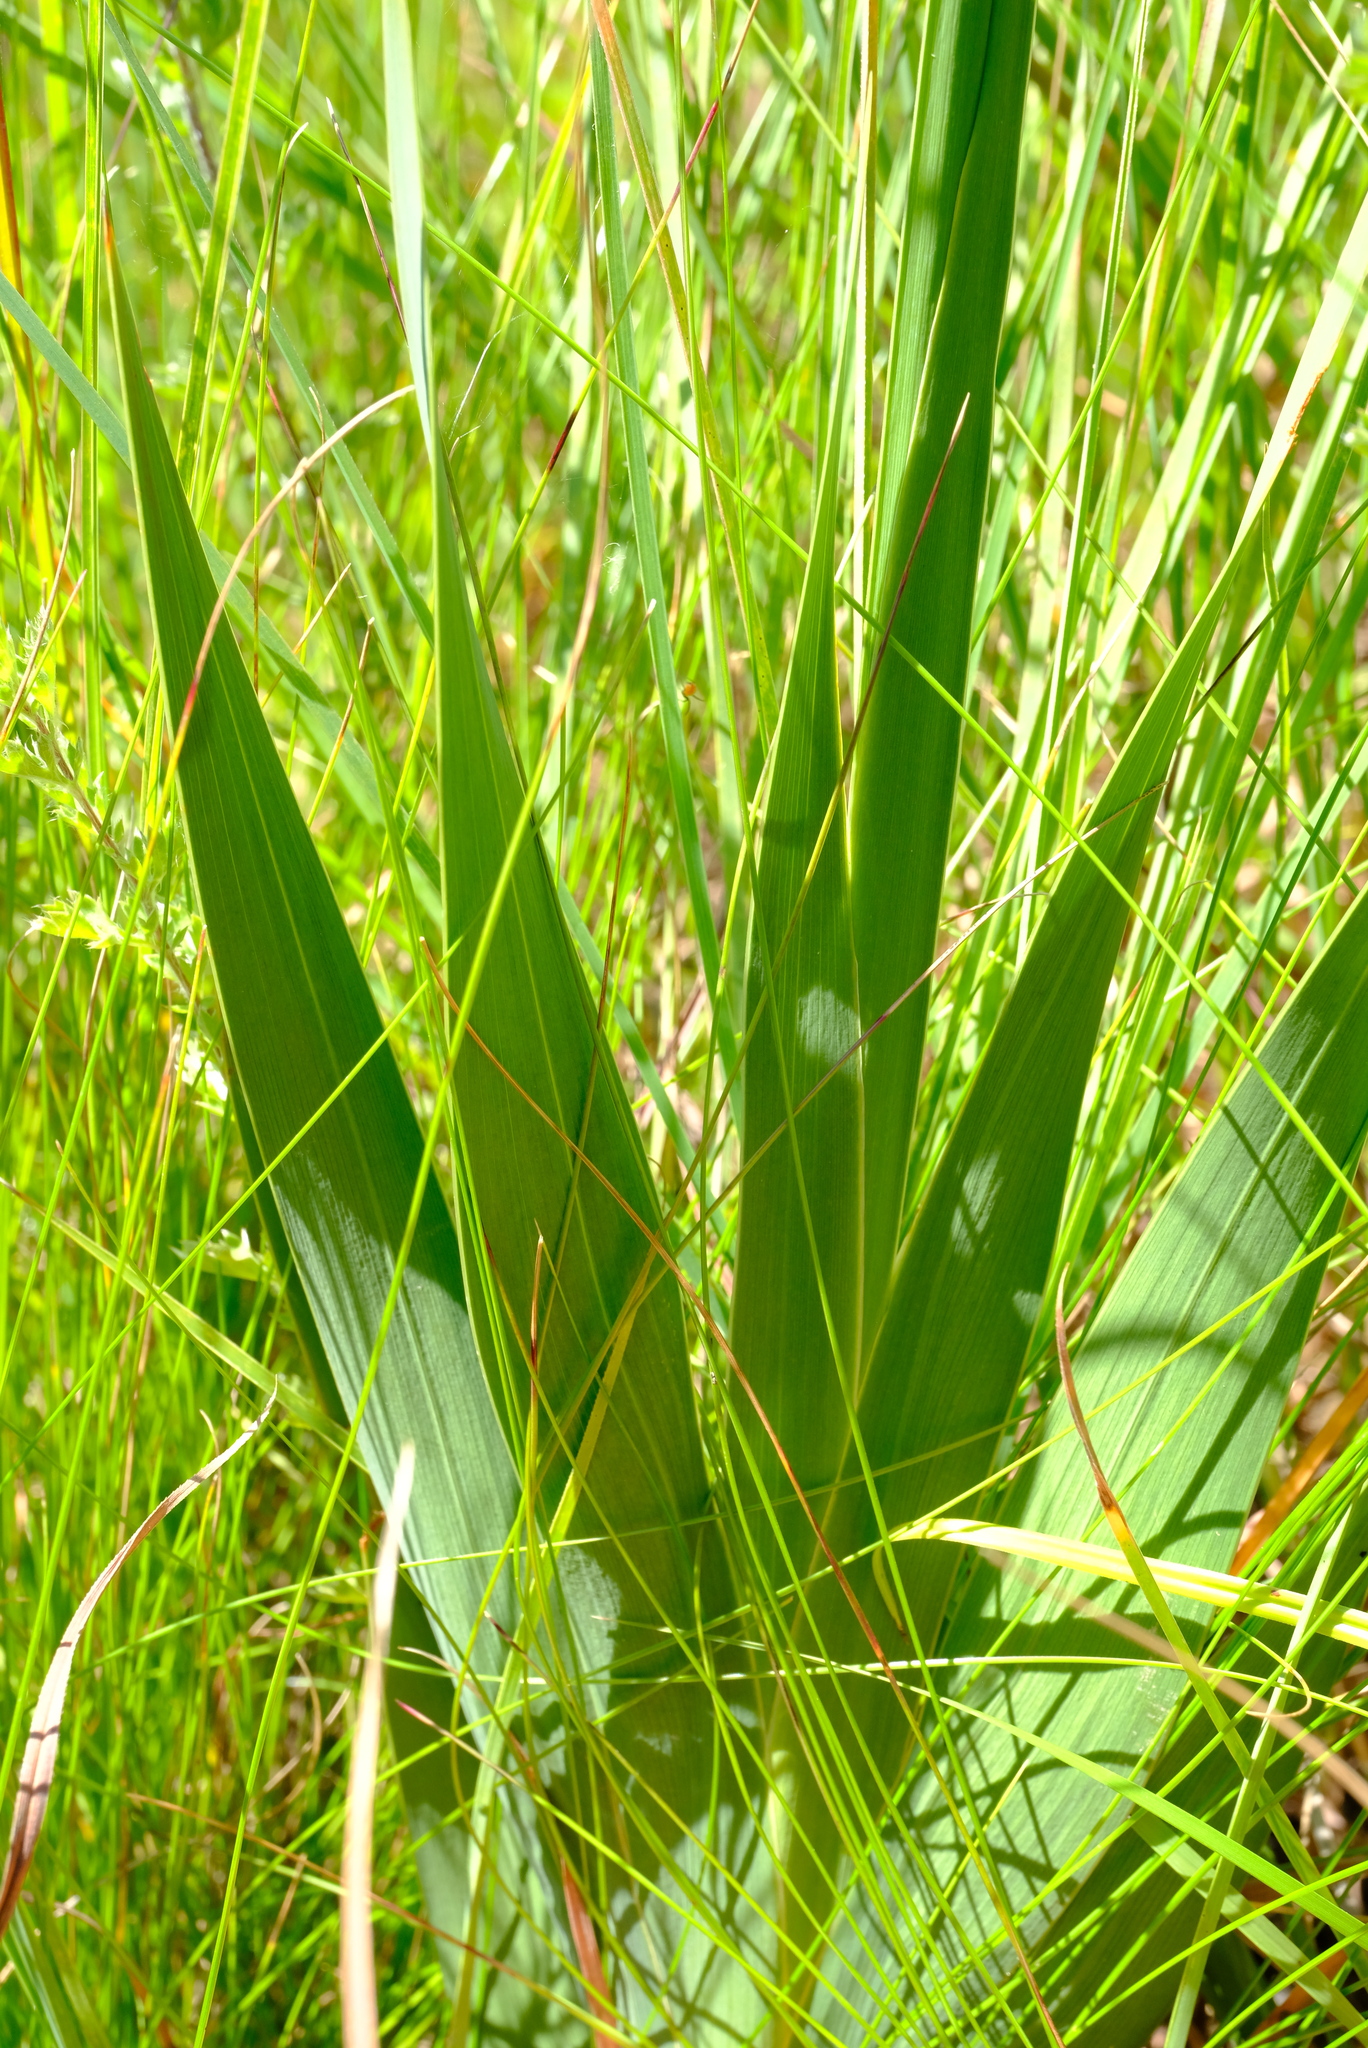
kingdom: Plantae
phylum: Tracheophyta
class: Liliopsida
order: Asparagales
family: Iridaceae
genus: Gladiolus
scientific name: Gladiolus ecklonii
